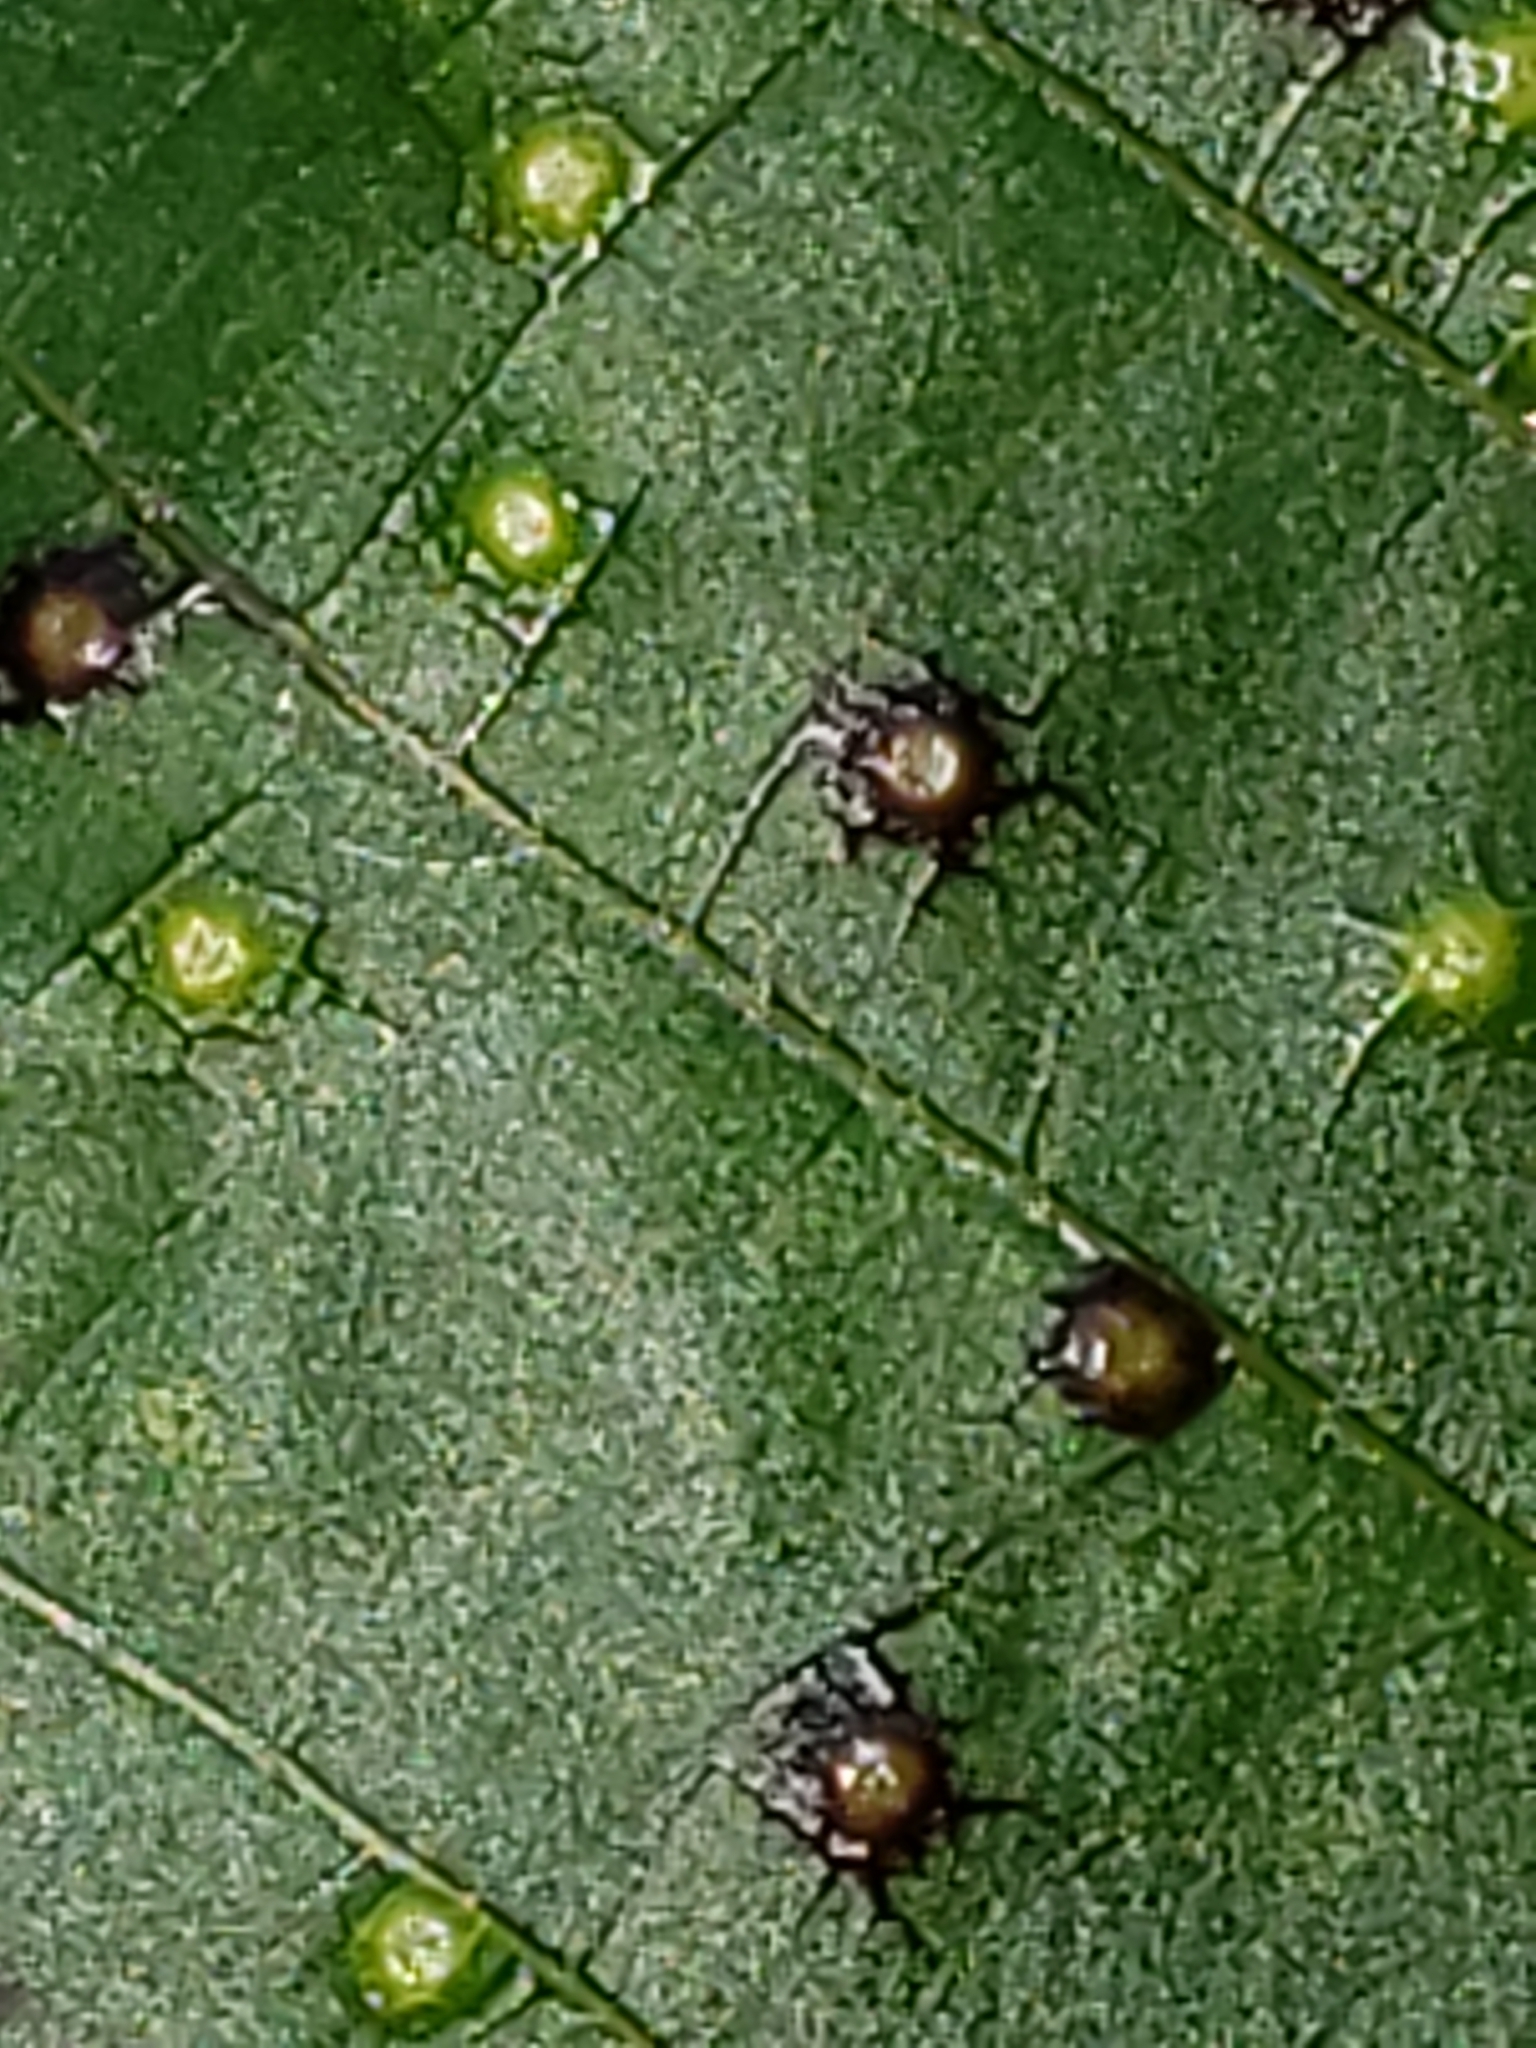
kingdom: Animalia
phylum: Arthropoda
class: Insecta
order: Hemiptera
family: Phylloxeridae
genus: Phylloxera
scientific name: Phylloxera caryae-semen
